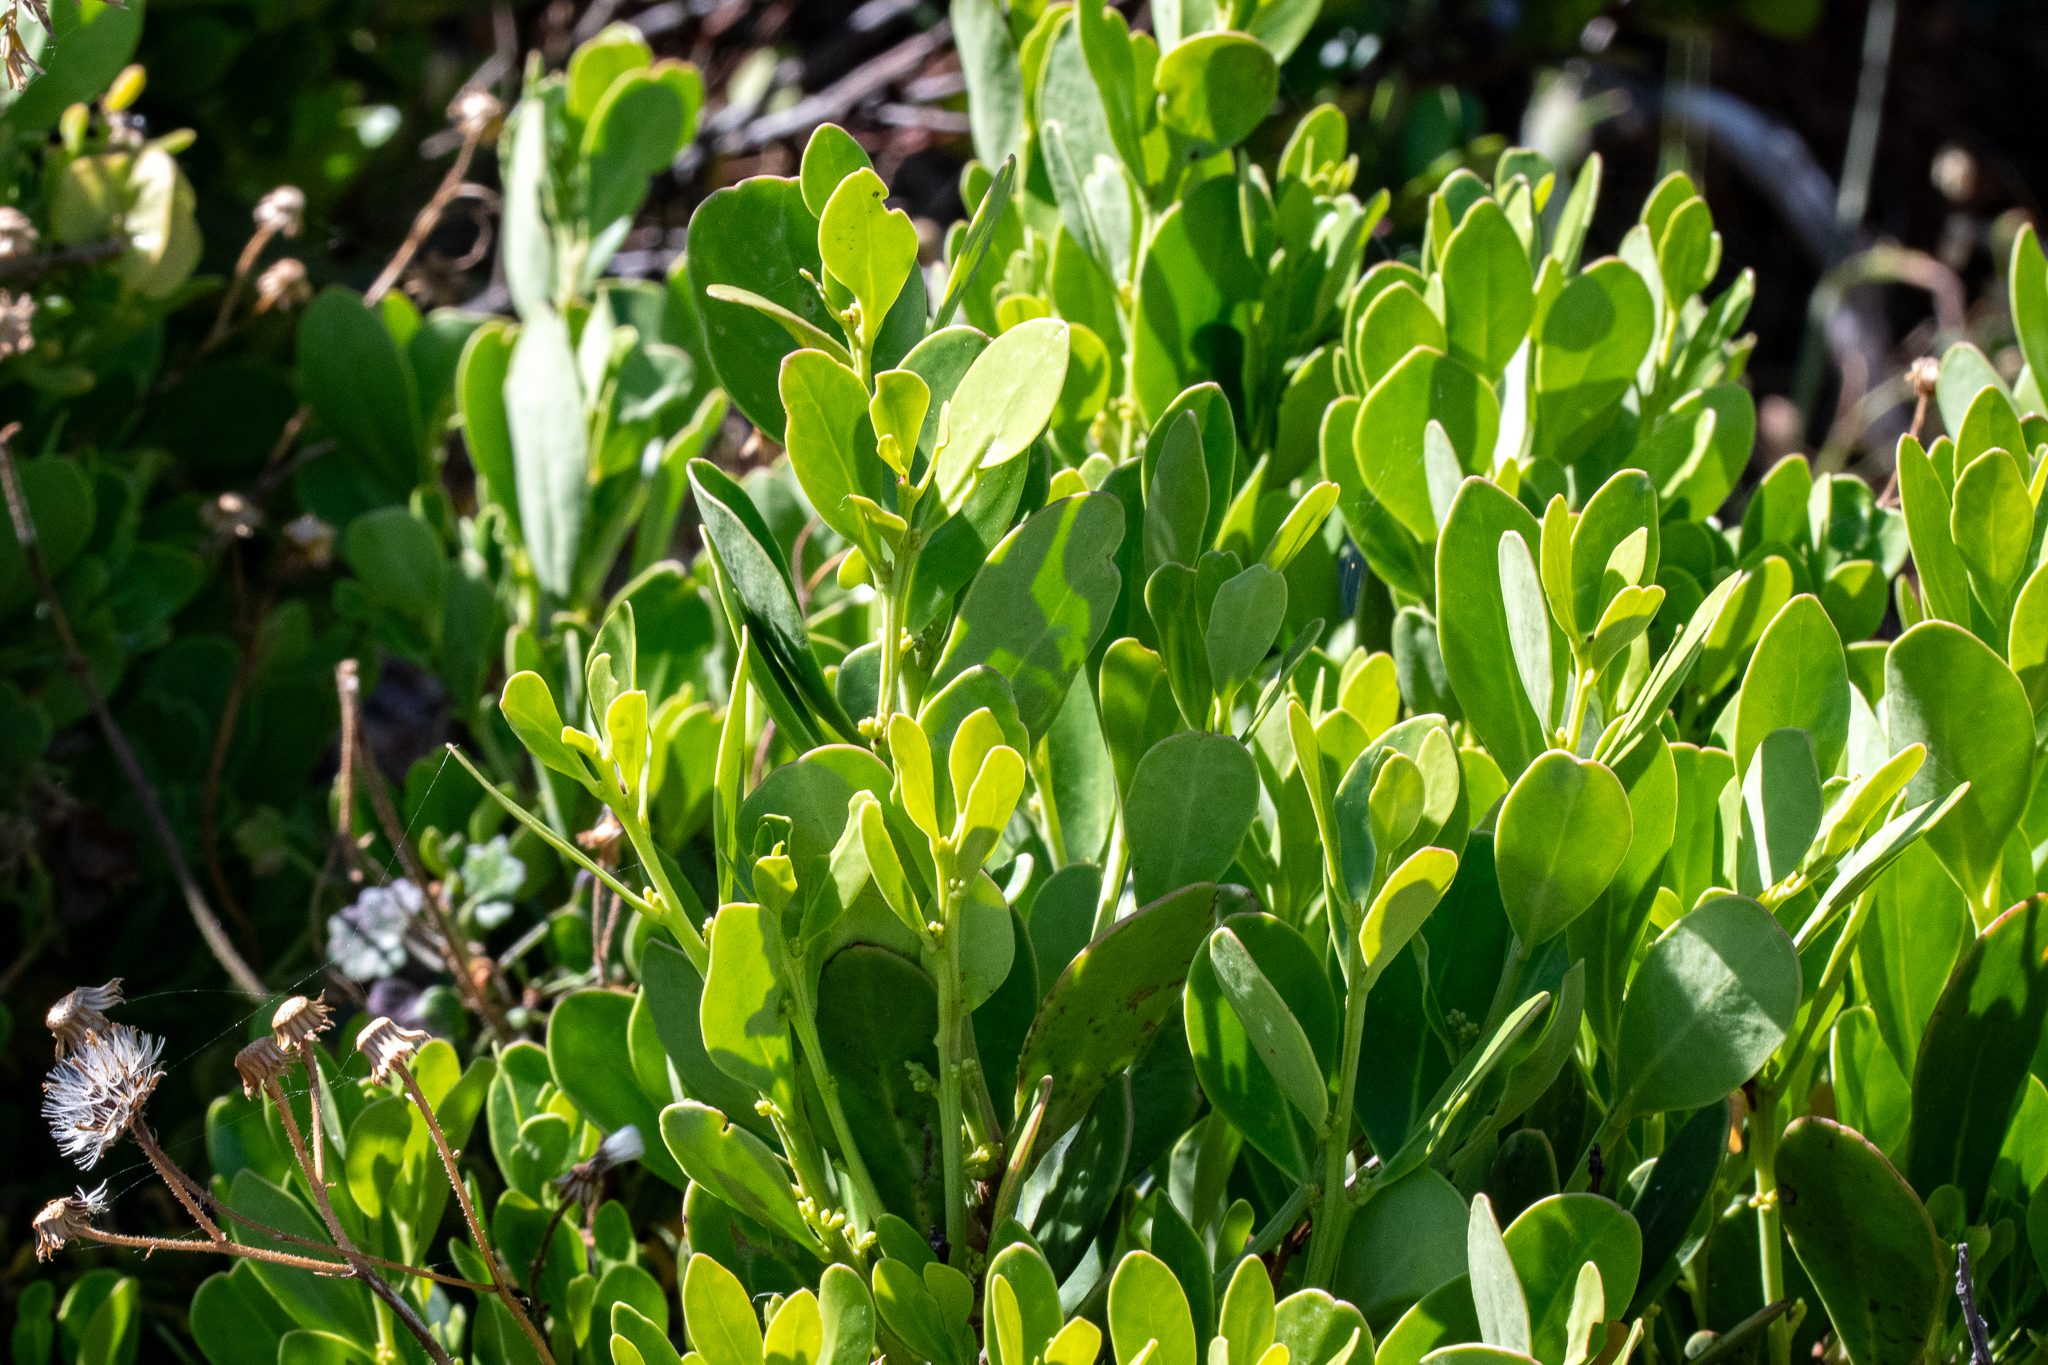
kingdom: Plantae
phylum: Tracheophyta
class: Magnoliopsida
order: Celastrales
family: Celastraceae
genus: Pterocelastrus
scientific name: Pterocelastrus tricuspidatus
